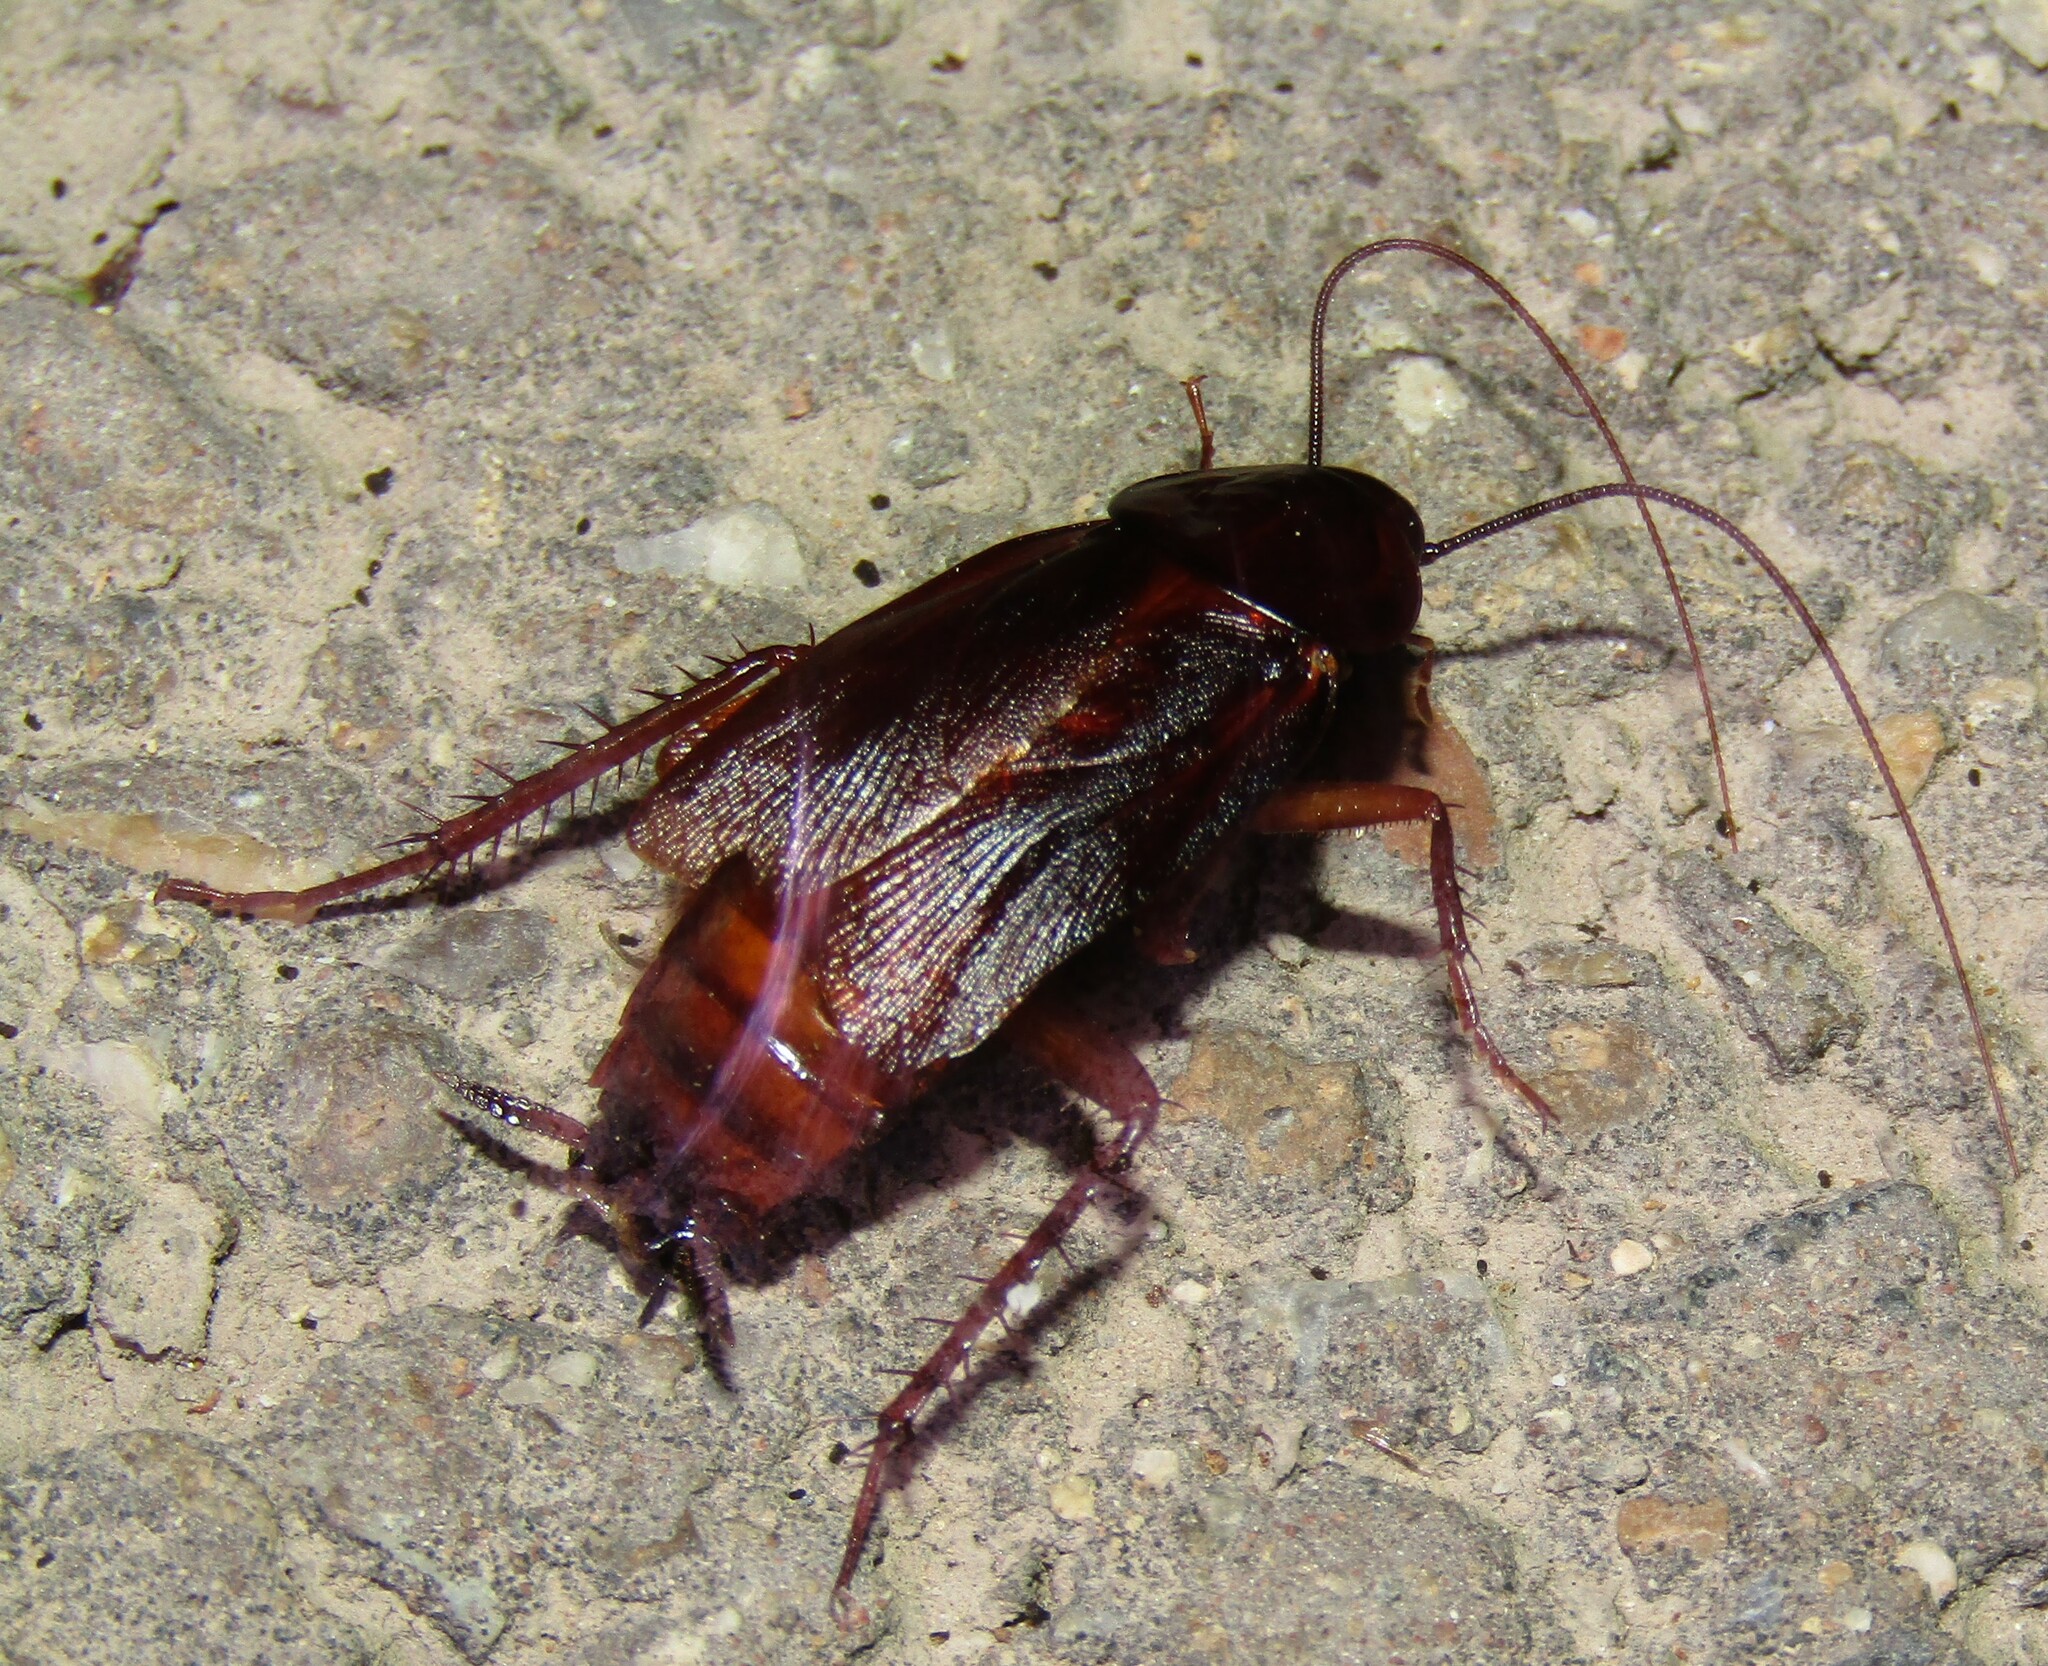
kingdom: Animalia
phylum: Arthropoda
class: Insecta
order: Blattodea
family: Blattidae
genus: Blatta
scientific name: Blatta orientalis
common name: Oriental cockroach
